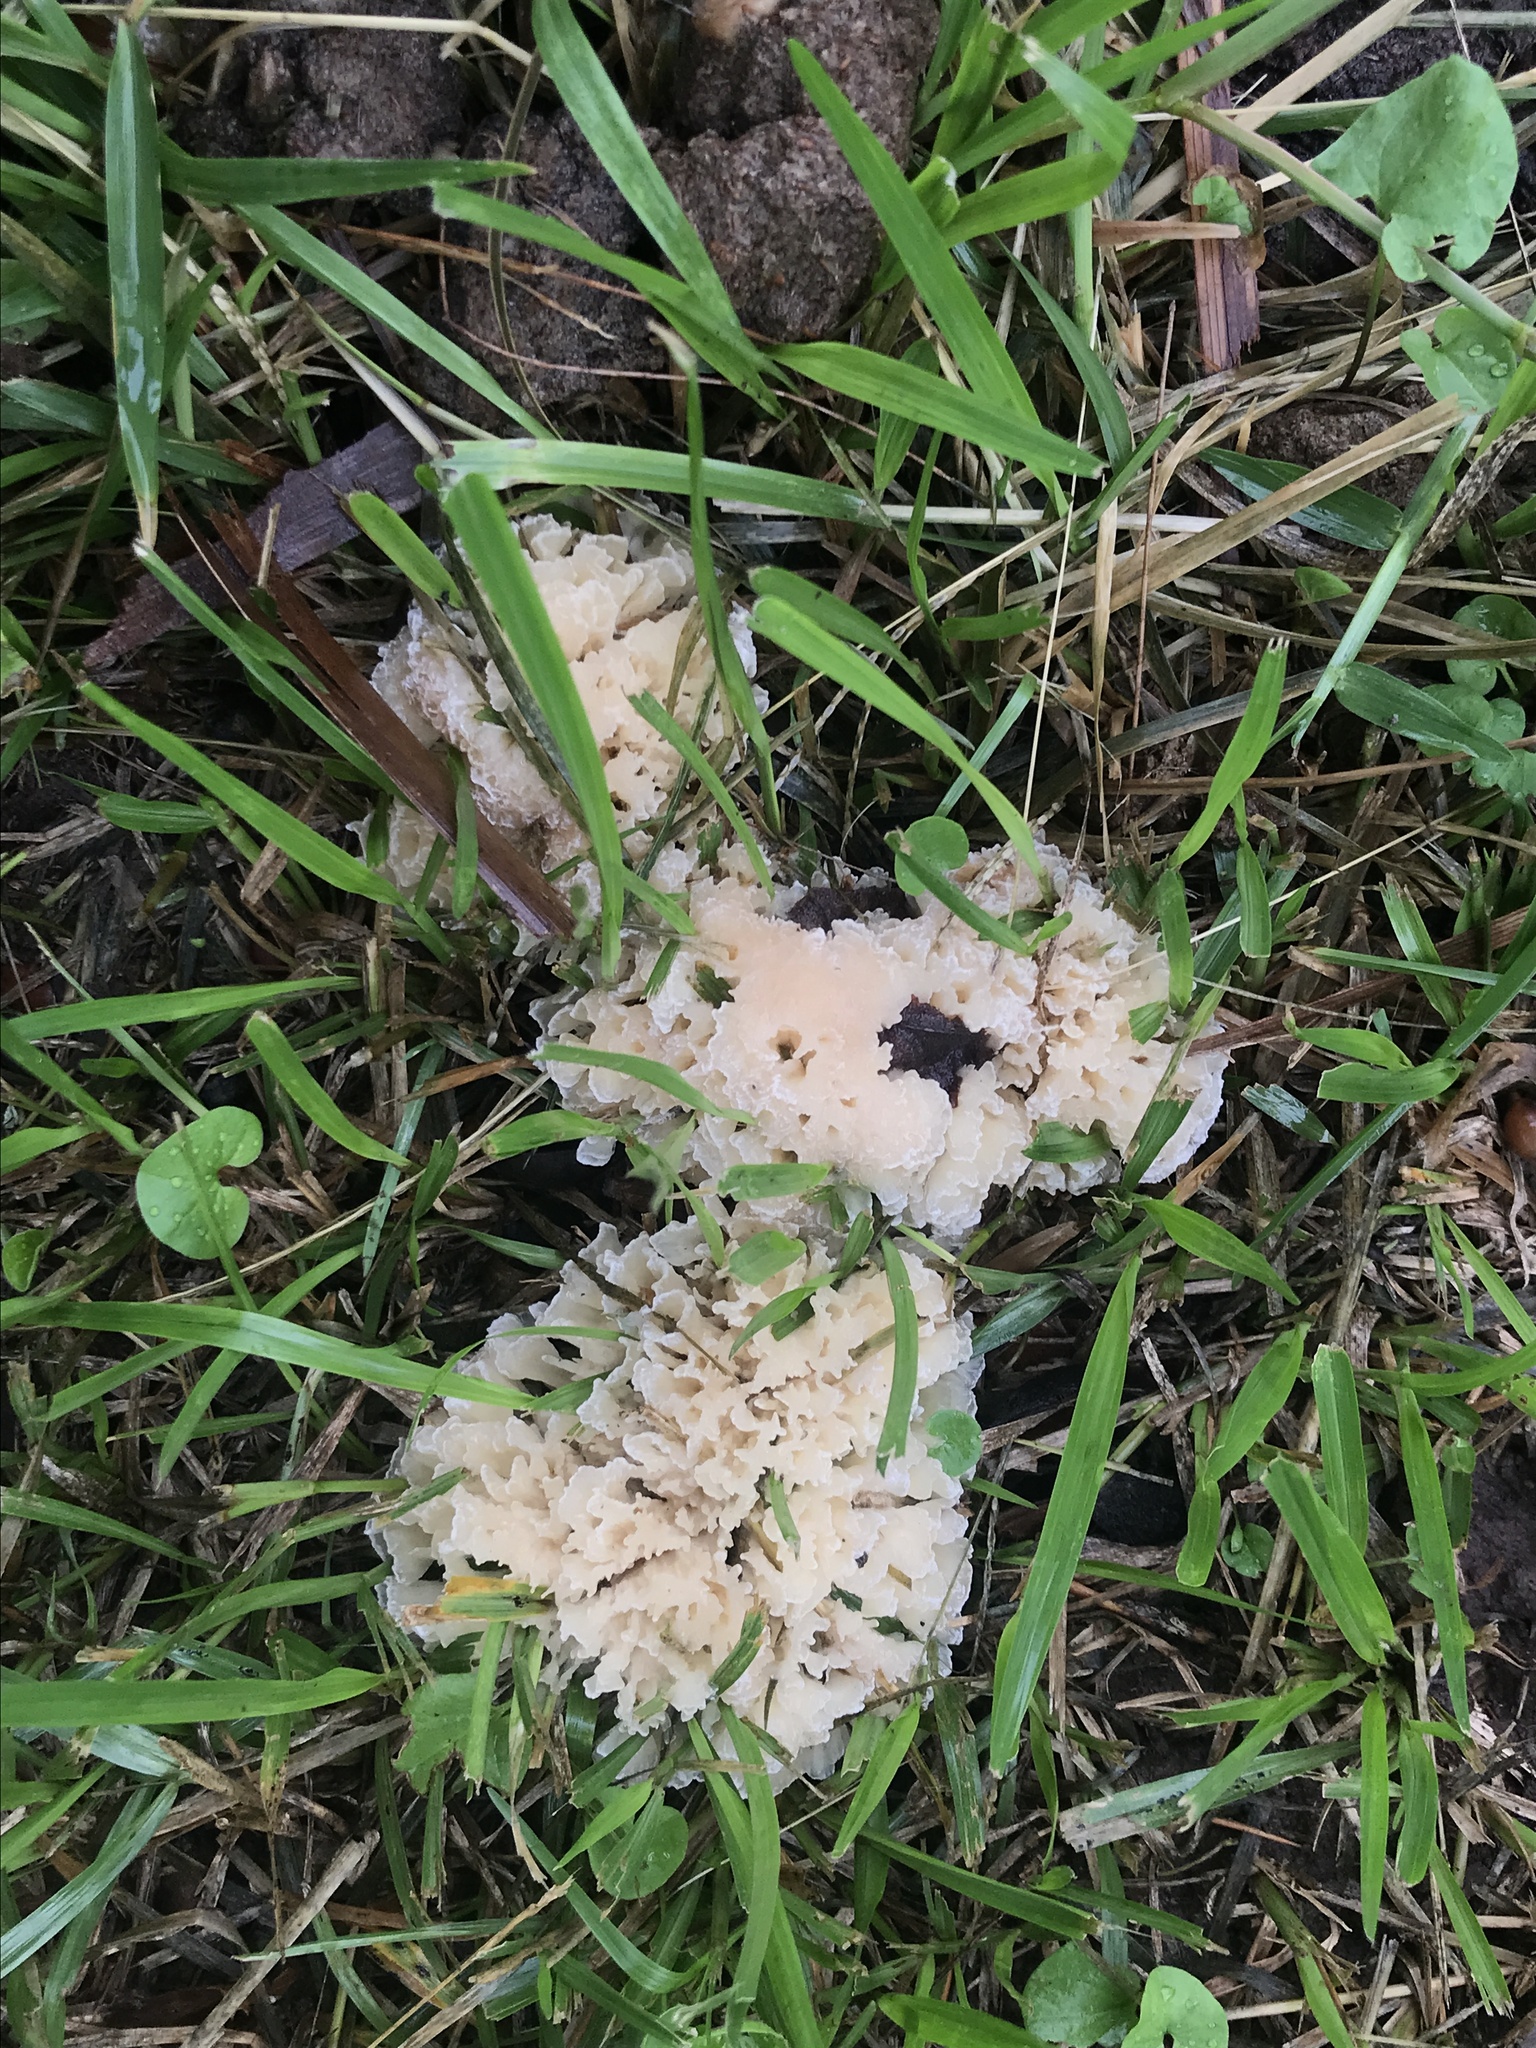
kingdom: Fungi
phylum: Basidiomycota
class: Agaricomycetes
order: Polyporales
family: Irpicaceae
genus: Irpex
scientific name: Irpex rosettiformis
